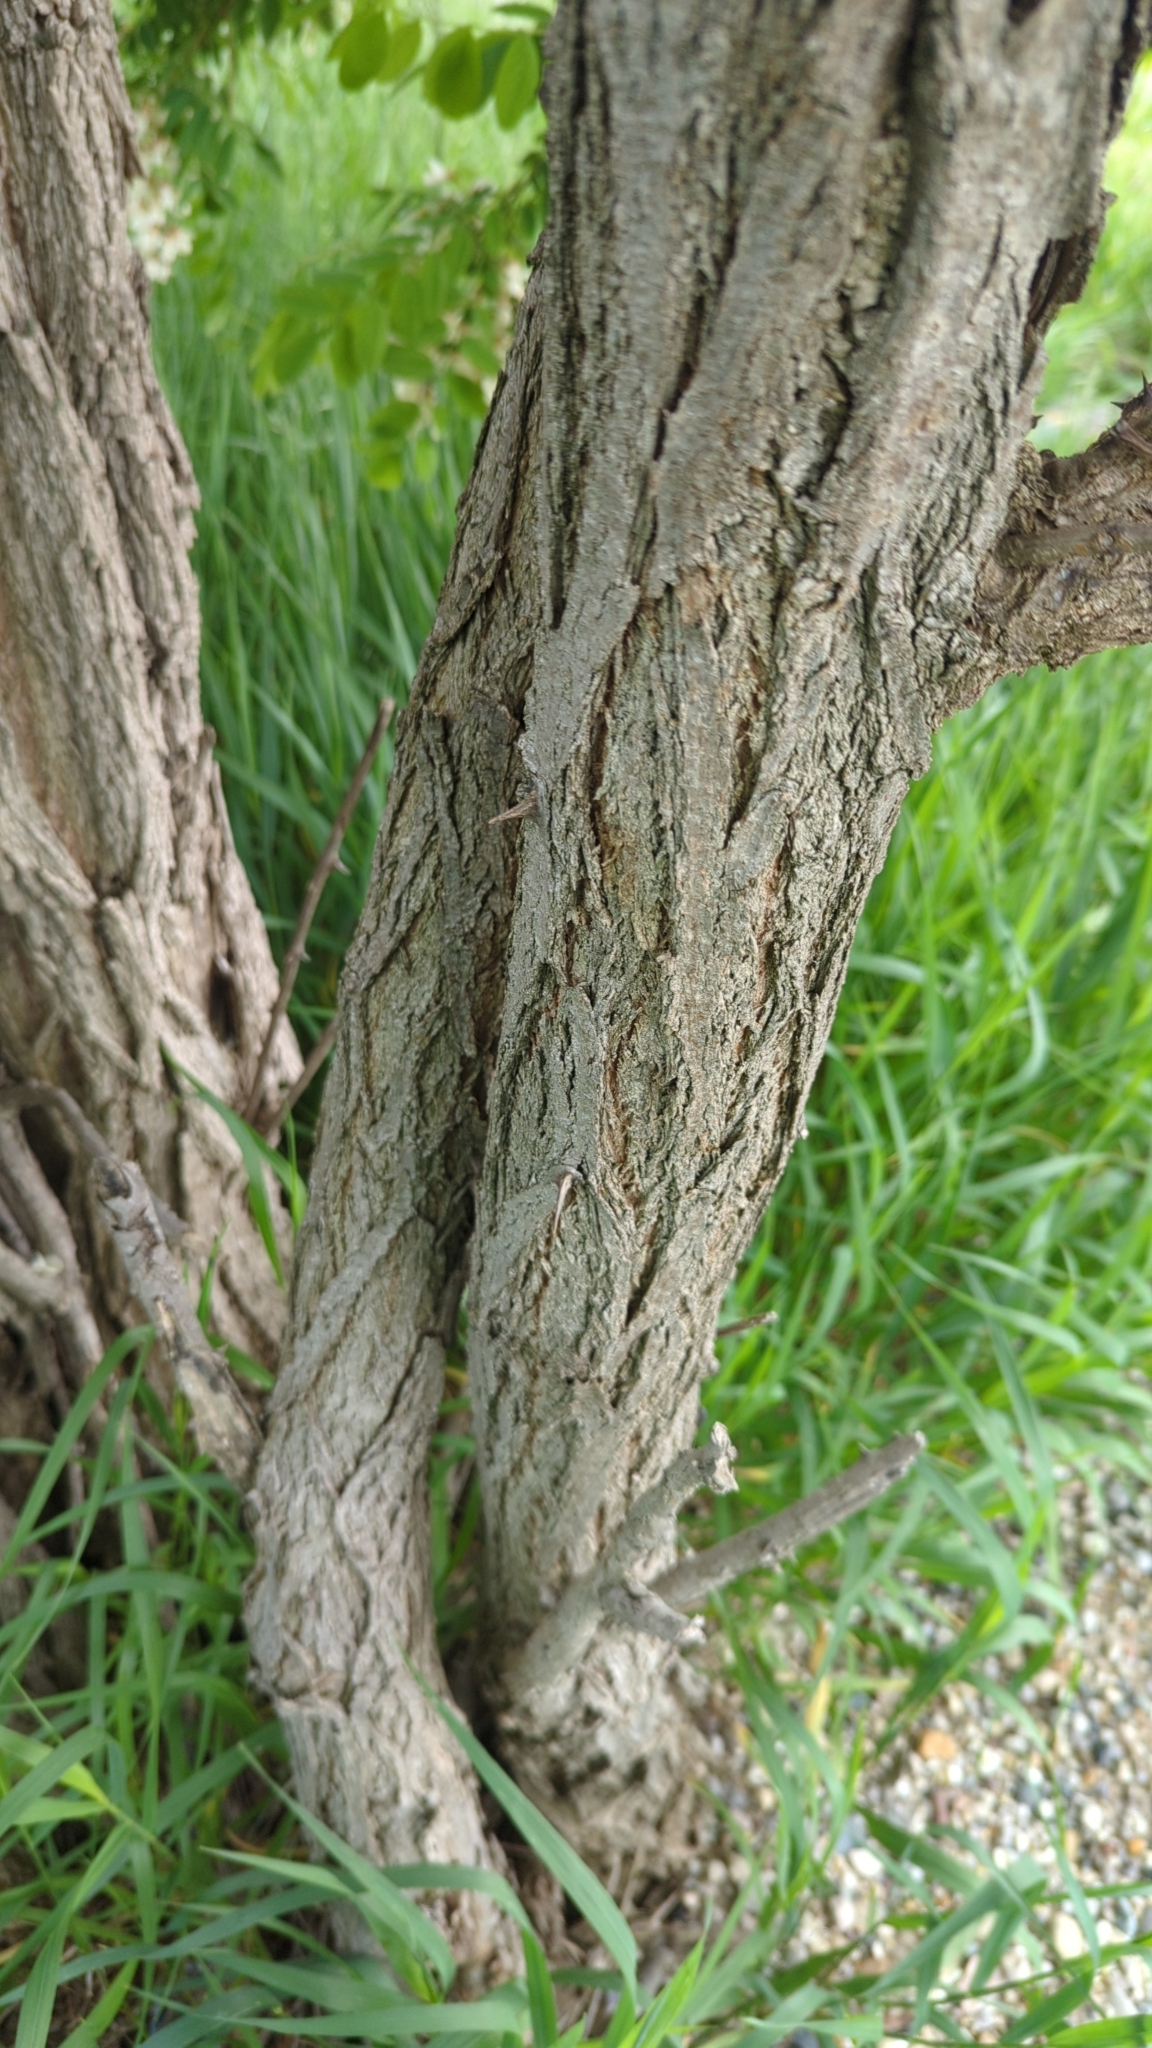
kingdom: Plantae
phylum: Tracheophyta
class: Magnoliopsida
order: Fabales
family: Fabaceae
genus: Robinia
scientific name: Robinia pseudoacacia
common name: Black locust
